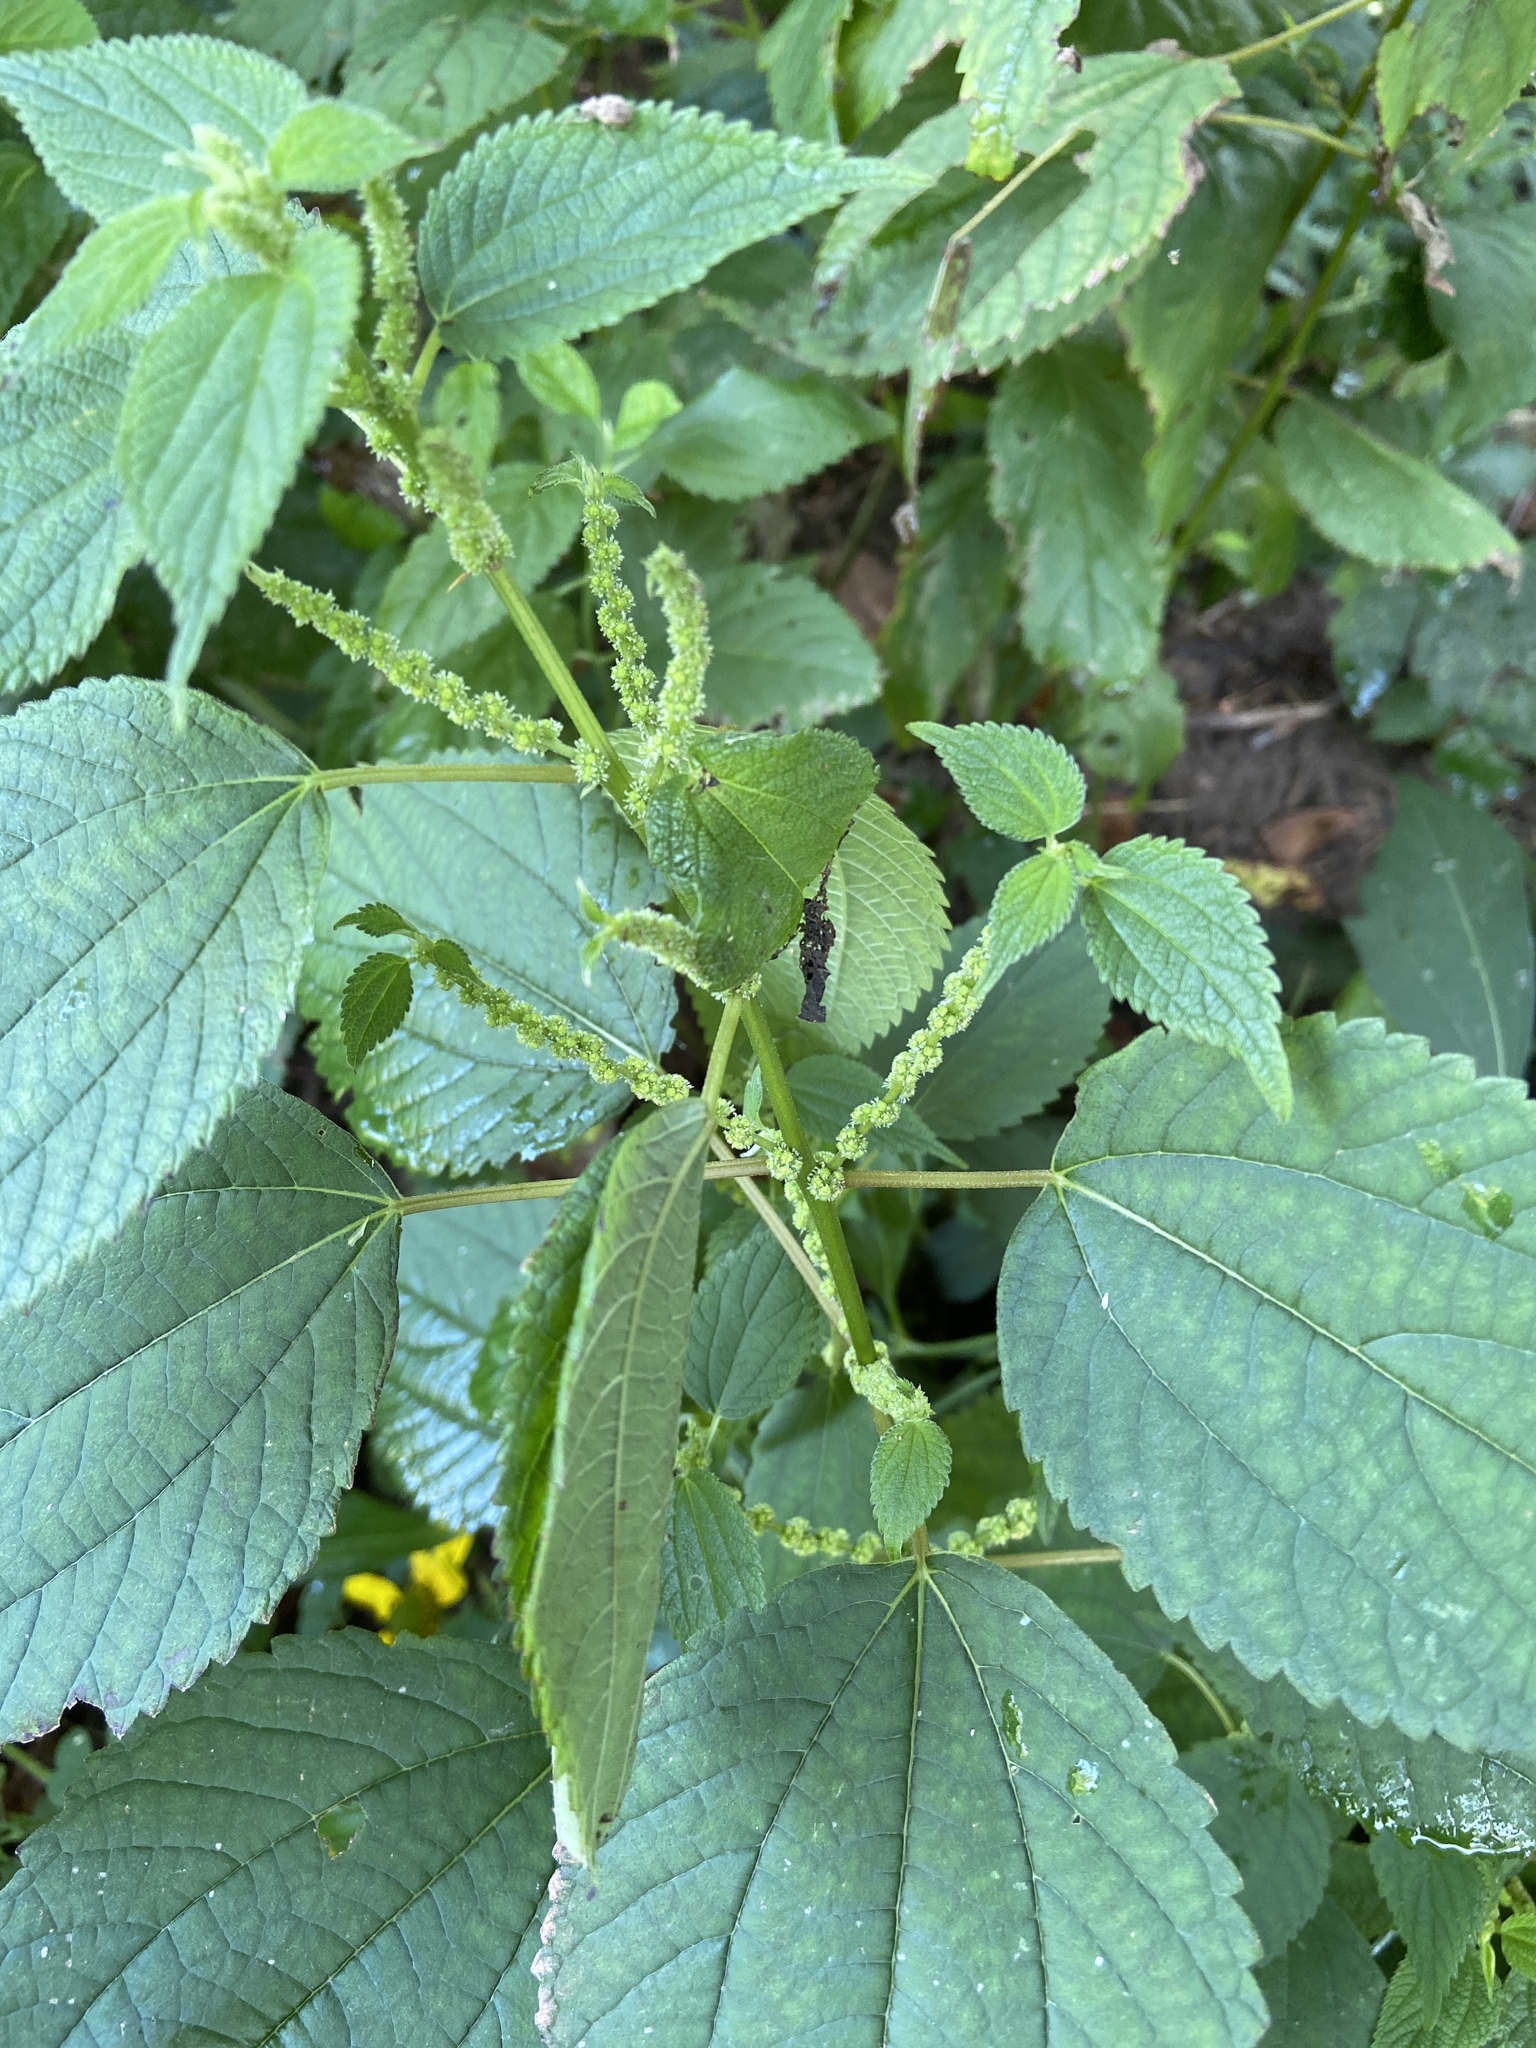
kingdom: Plantae
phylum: Tracheophyta
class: Magnoliopsida
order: Rosales
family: Urticaceae
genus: Boehmeria
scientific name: Boehmeria cylindrica
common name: Bog-hemp
